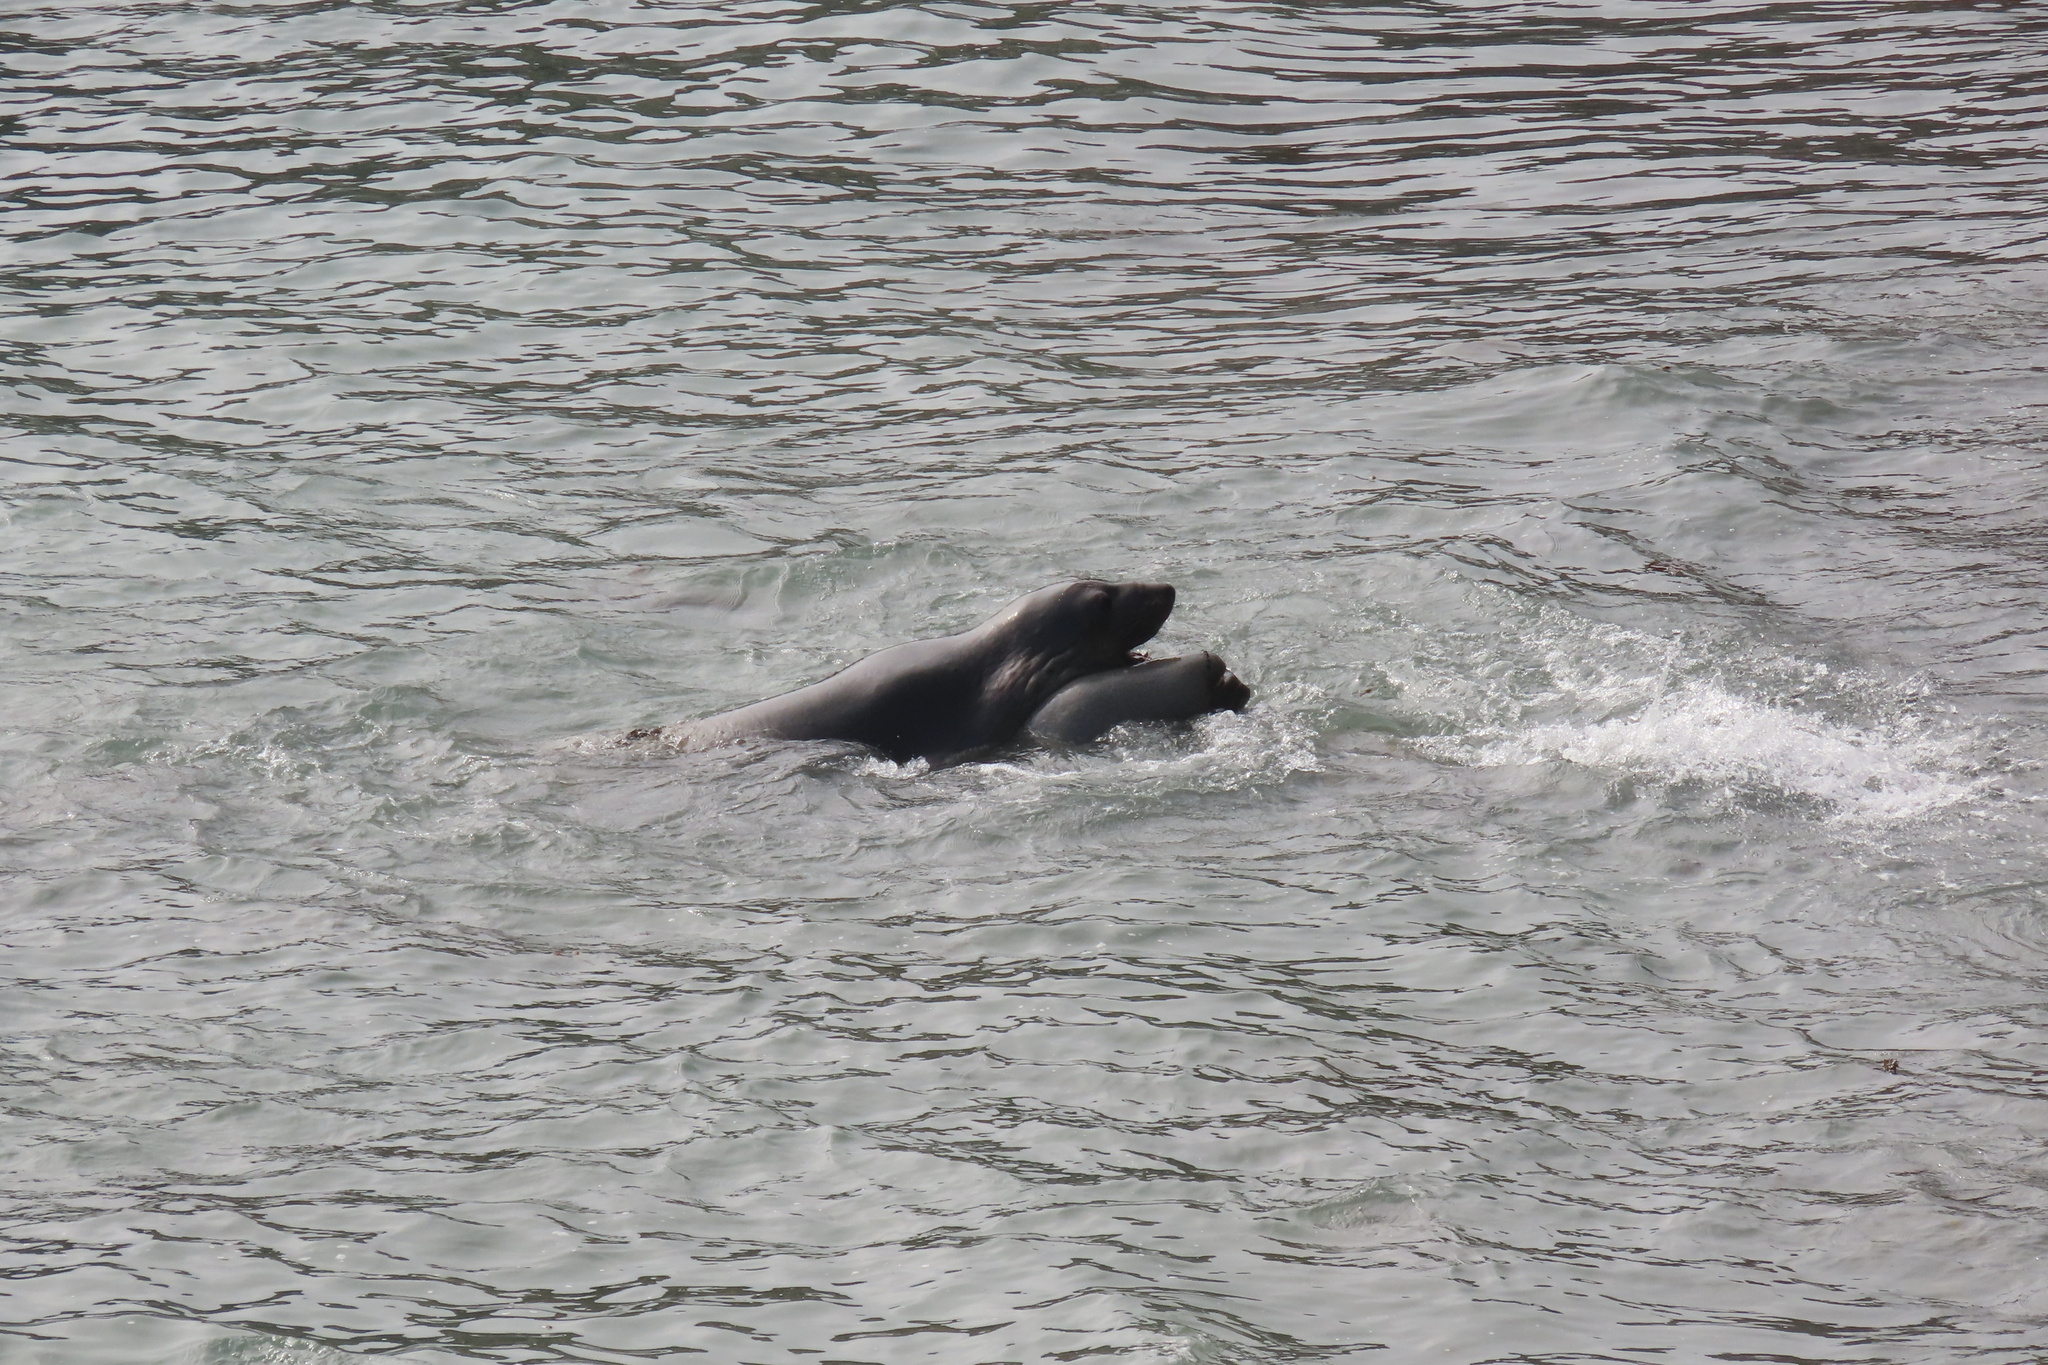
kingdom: Animalia
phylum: Chordata
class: Mammalia
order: Carnivora
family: Phocidae
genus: Mirounga
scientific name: Mirounga angustirostris
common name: Northern elephant seal
